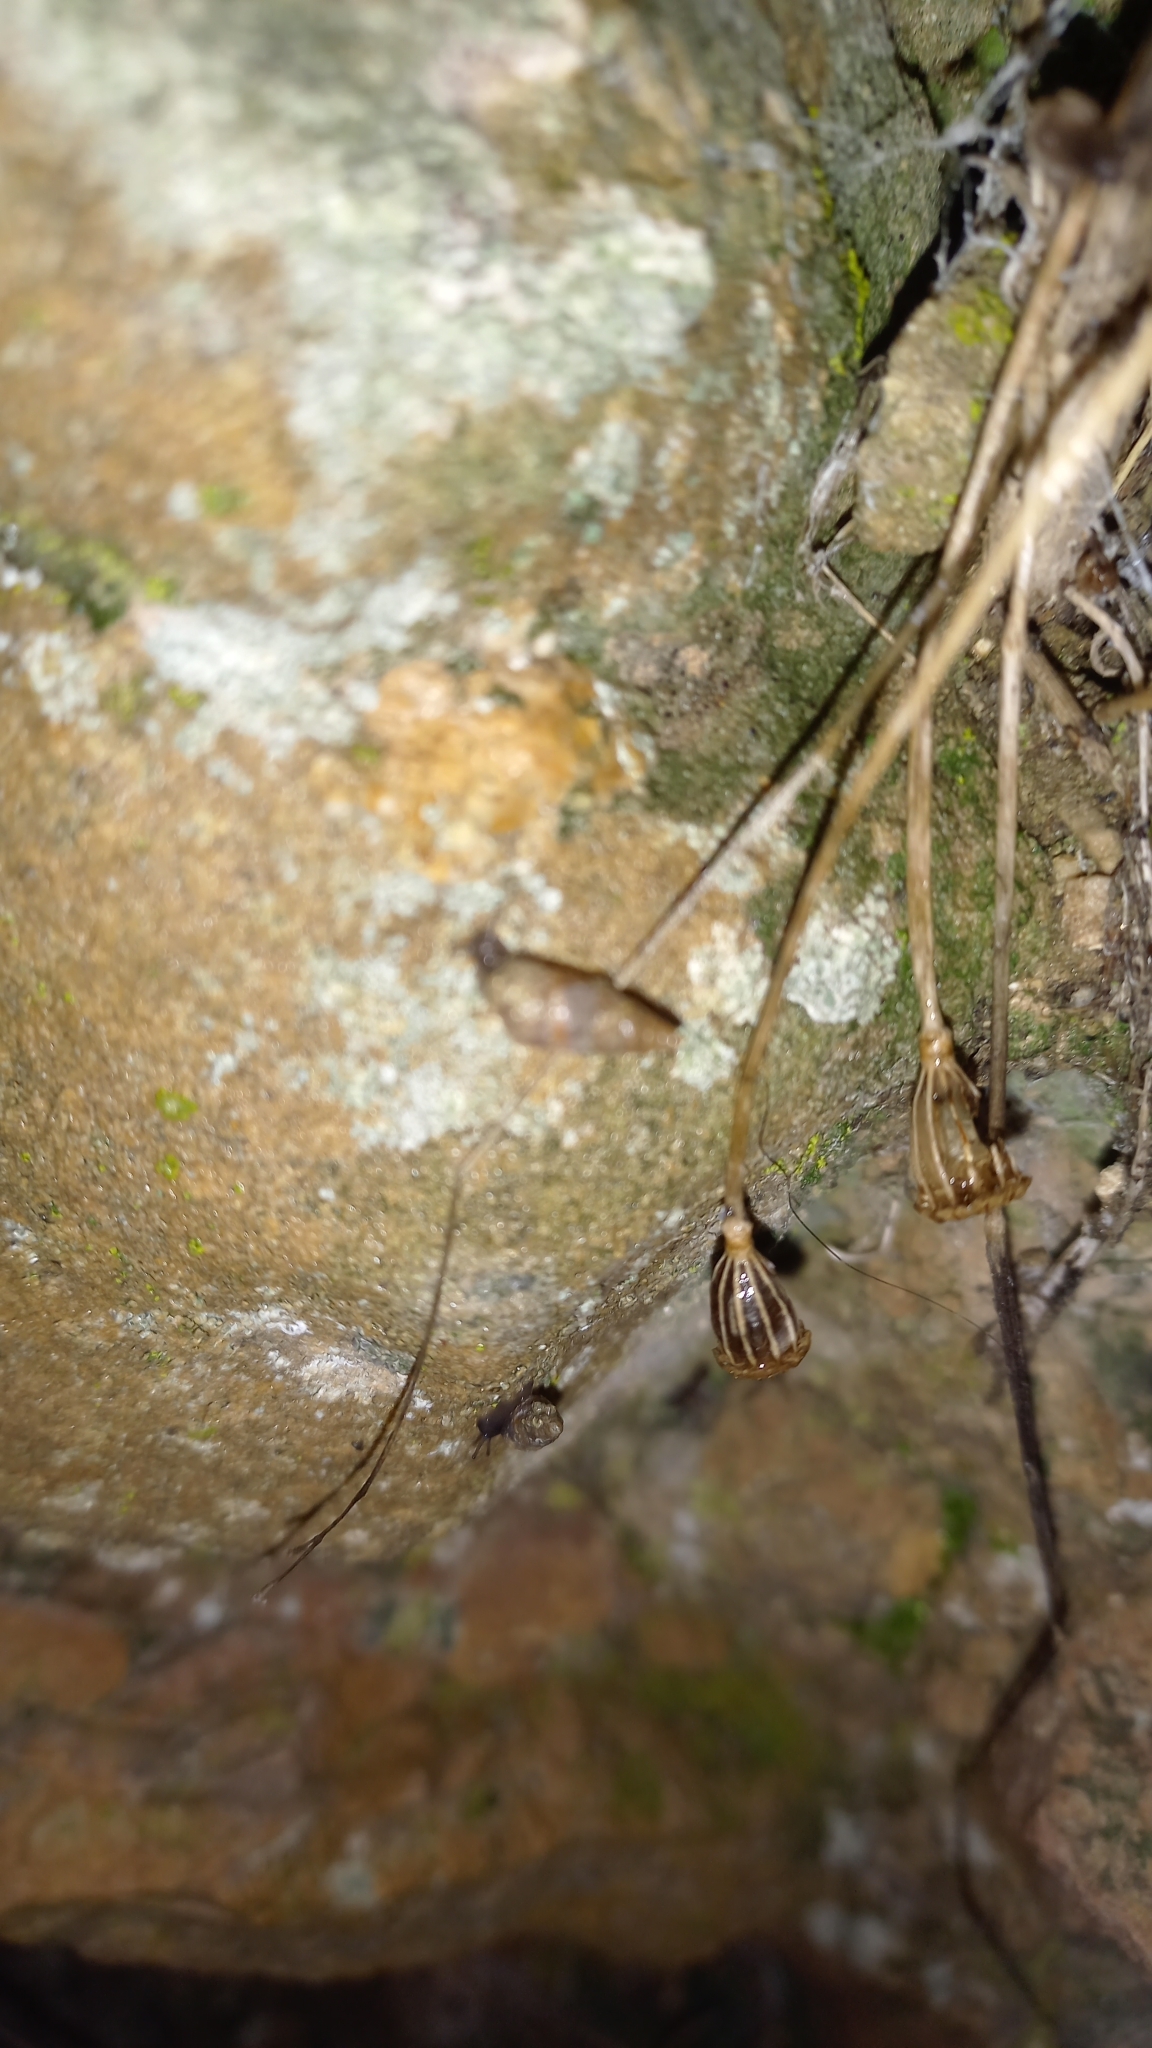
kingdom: Animalia
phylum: Mollusca
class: Gastropoda
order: Stylommatophora
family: Chondrinidae
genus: Solatopupa
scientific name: Solatopupa similis
